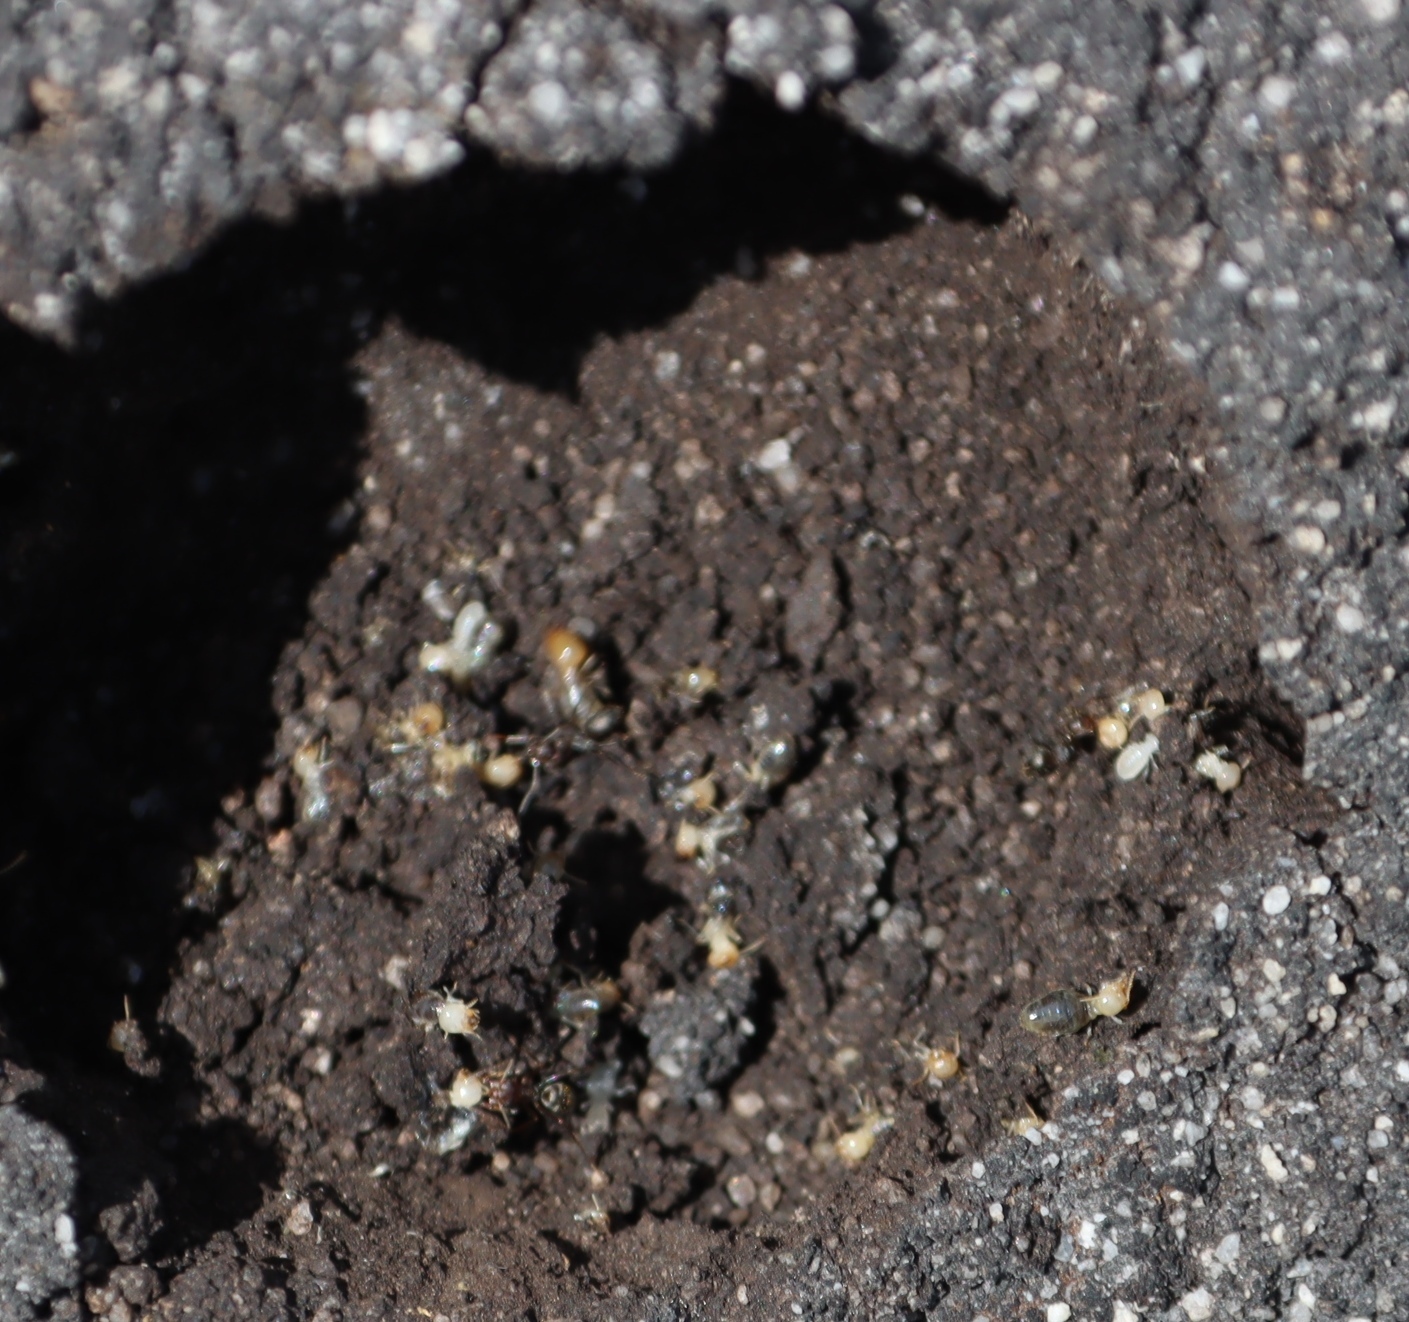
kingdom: Animalia
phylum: Arthropoda
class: Insecta
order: Blattodea
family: Termitidae
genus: Amitermes
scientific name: Amitermes hastatus
